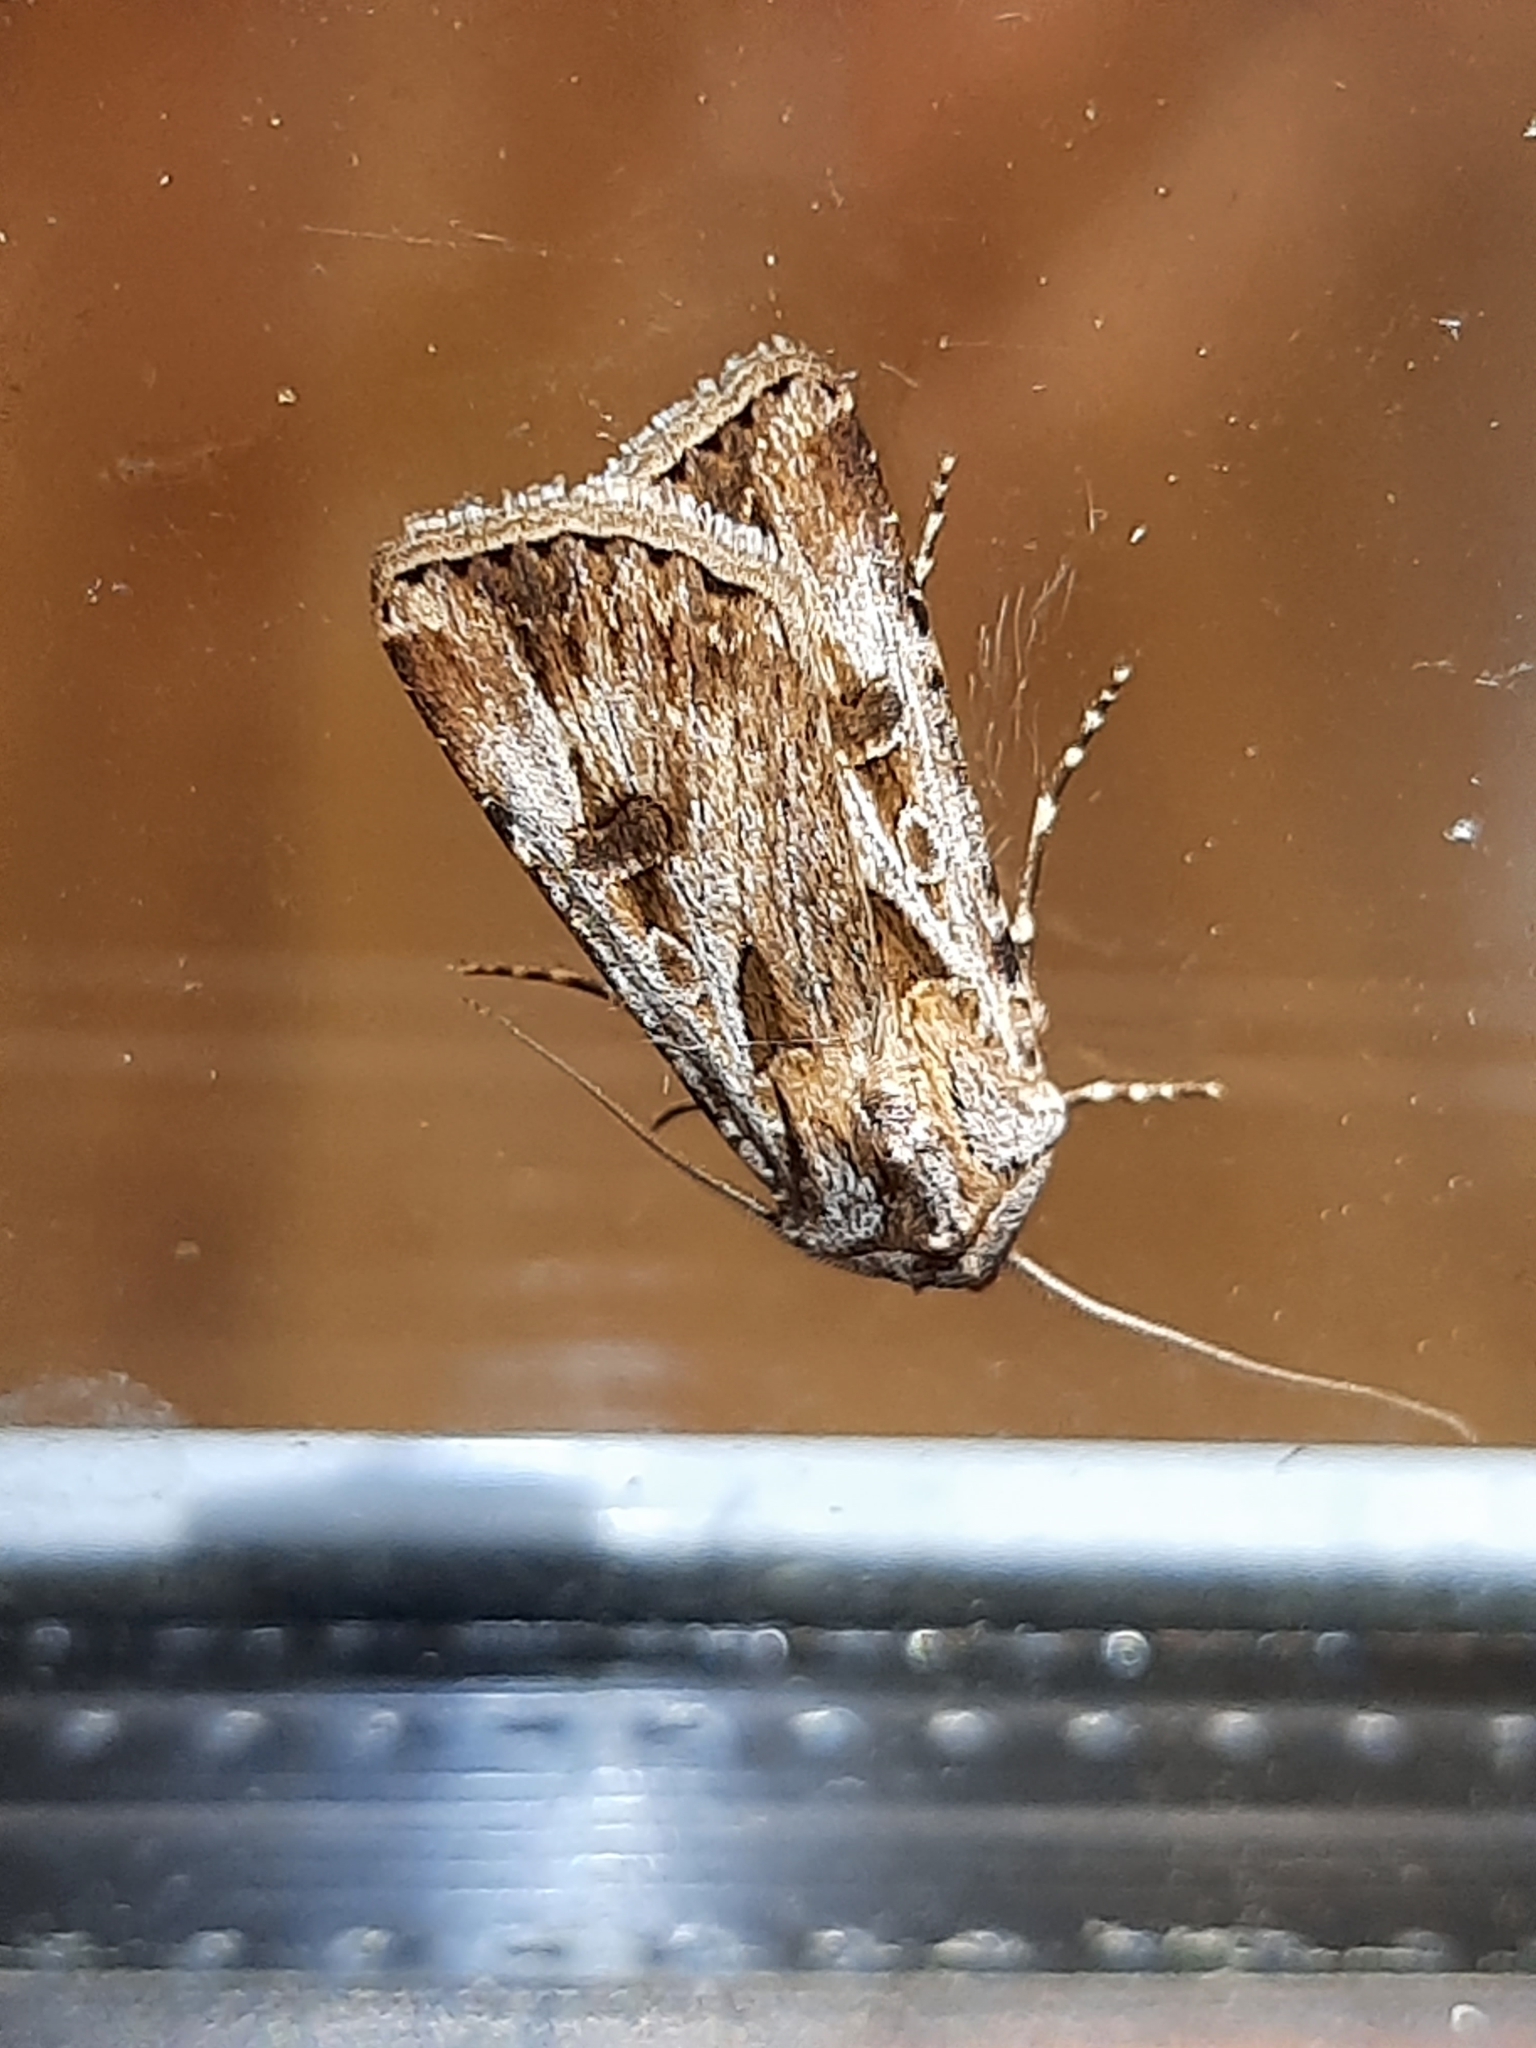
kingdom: Animalia
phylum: Arthropoda
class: Insecta
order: Lepidoptera
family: Noctuidae
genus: Agrotis
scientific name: Agrotis munda
